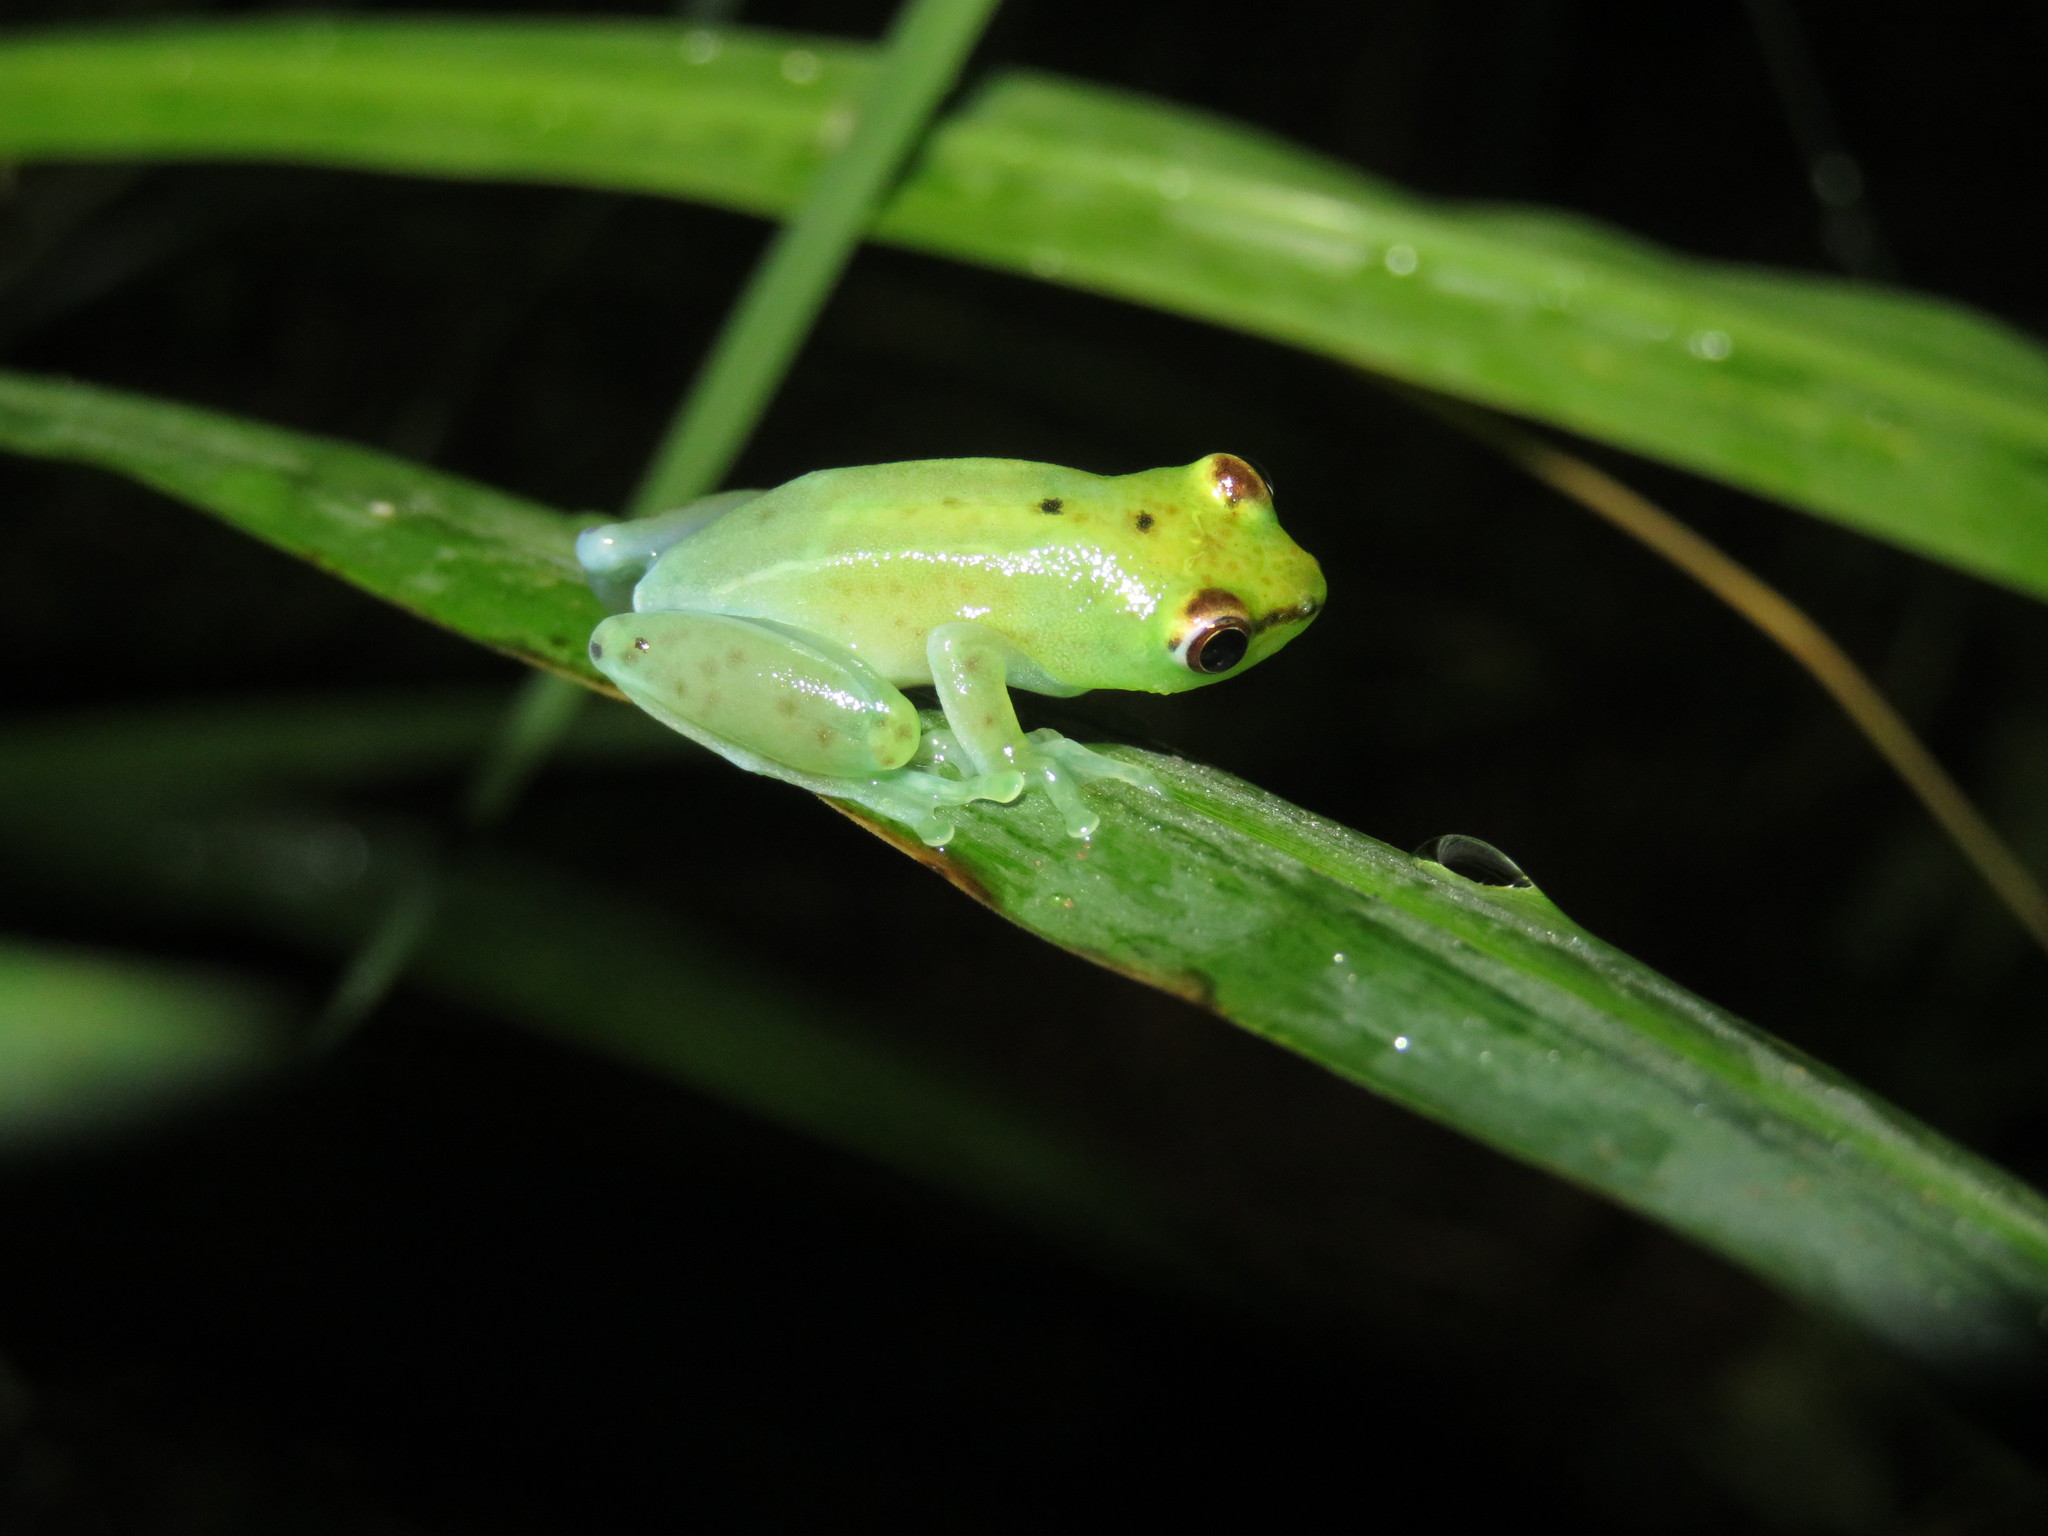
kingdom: Animalia
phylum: Chordata
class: Amphibia
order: Anura
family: Hyperoliidae
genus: Hyperolius
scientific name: Hyperolius pusillus
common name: Water lily reed frog
